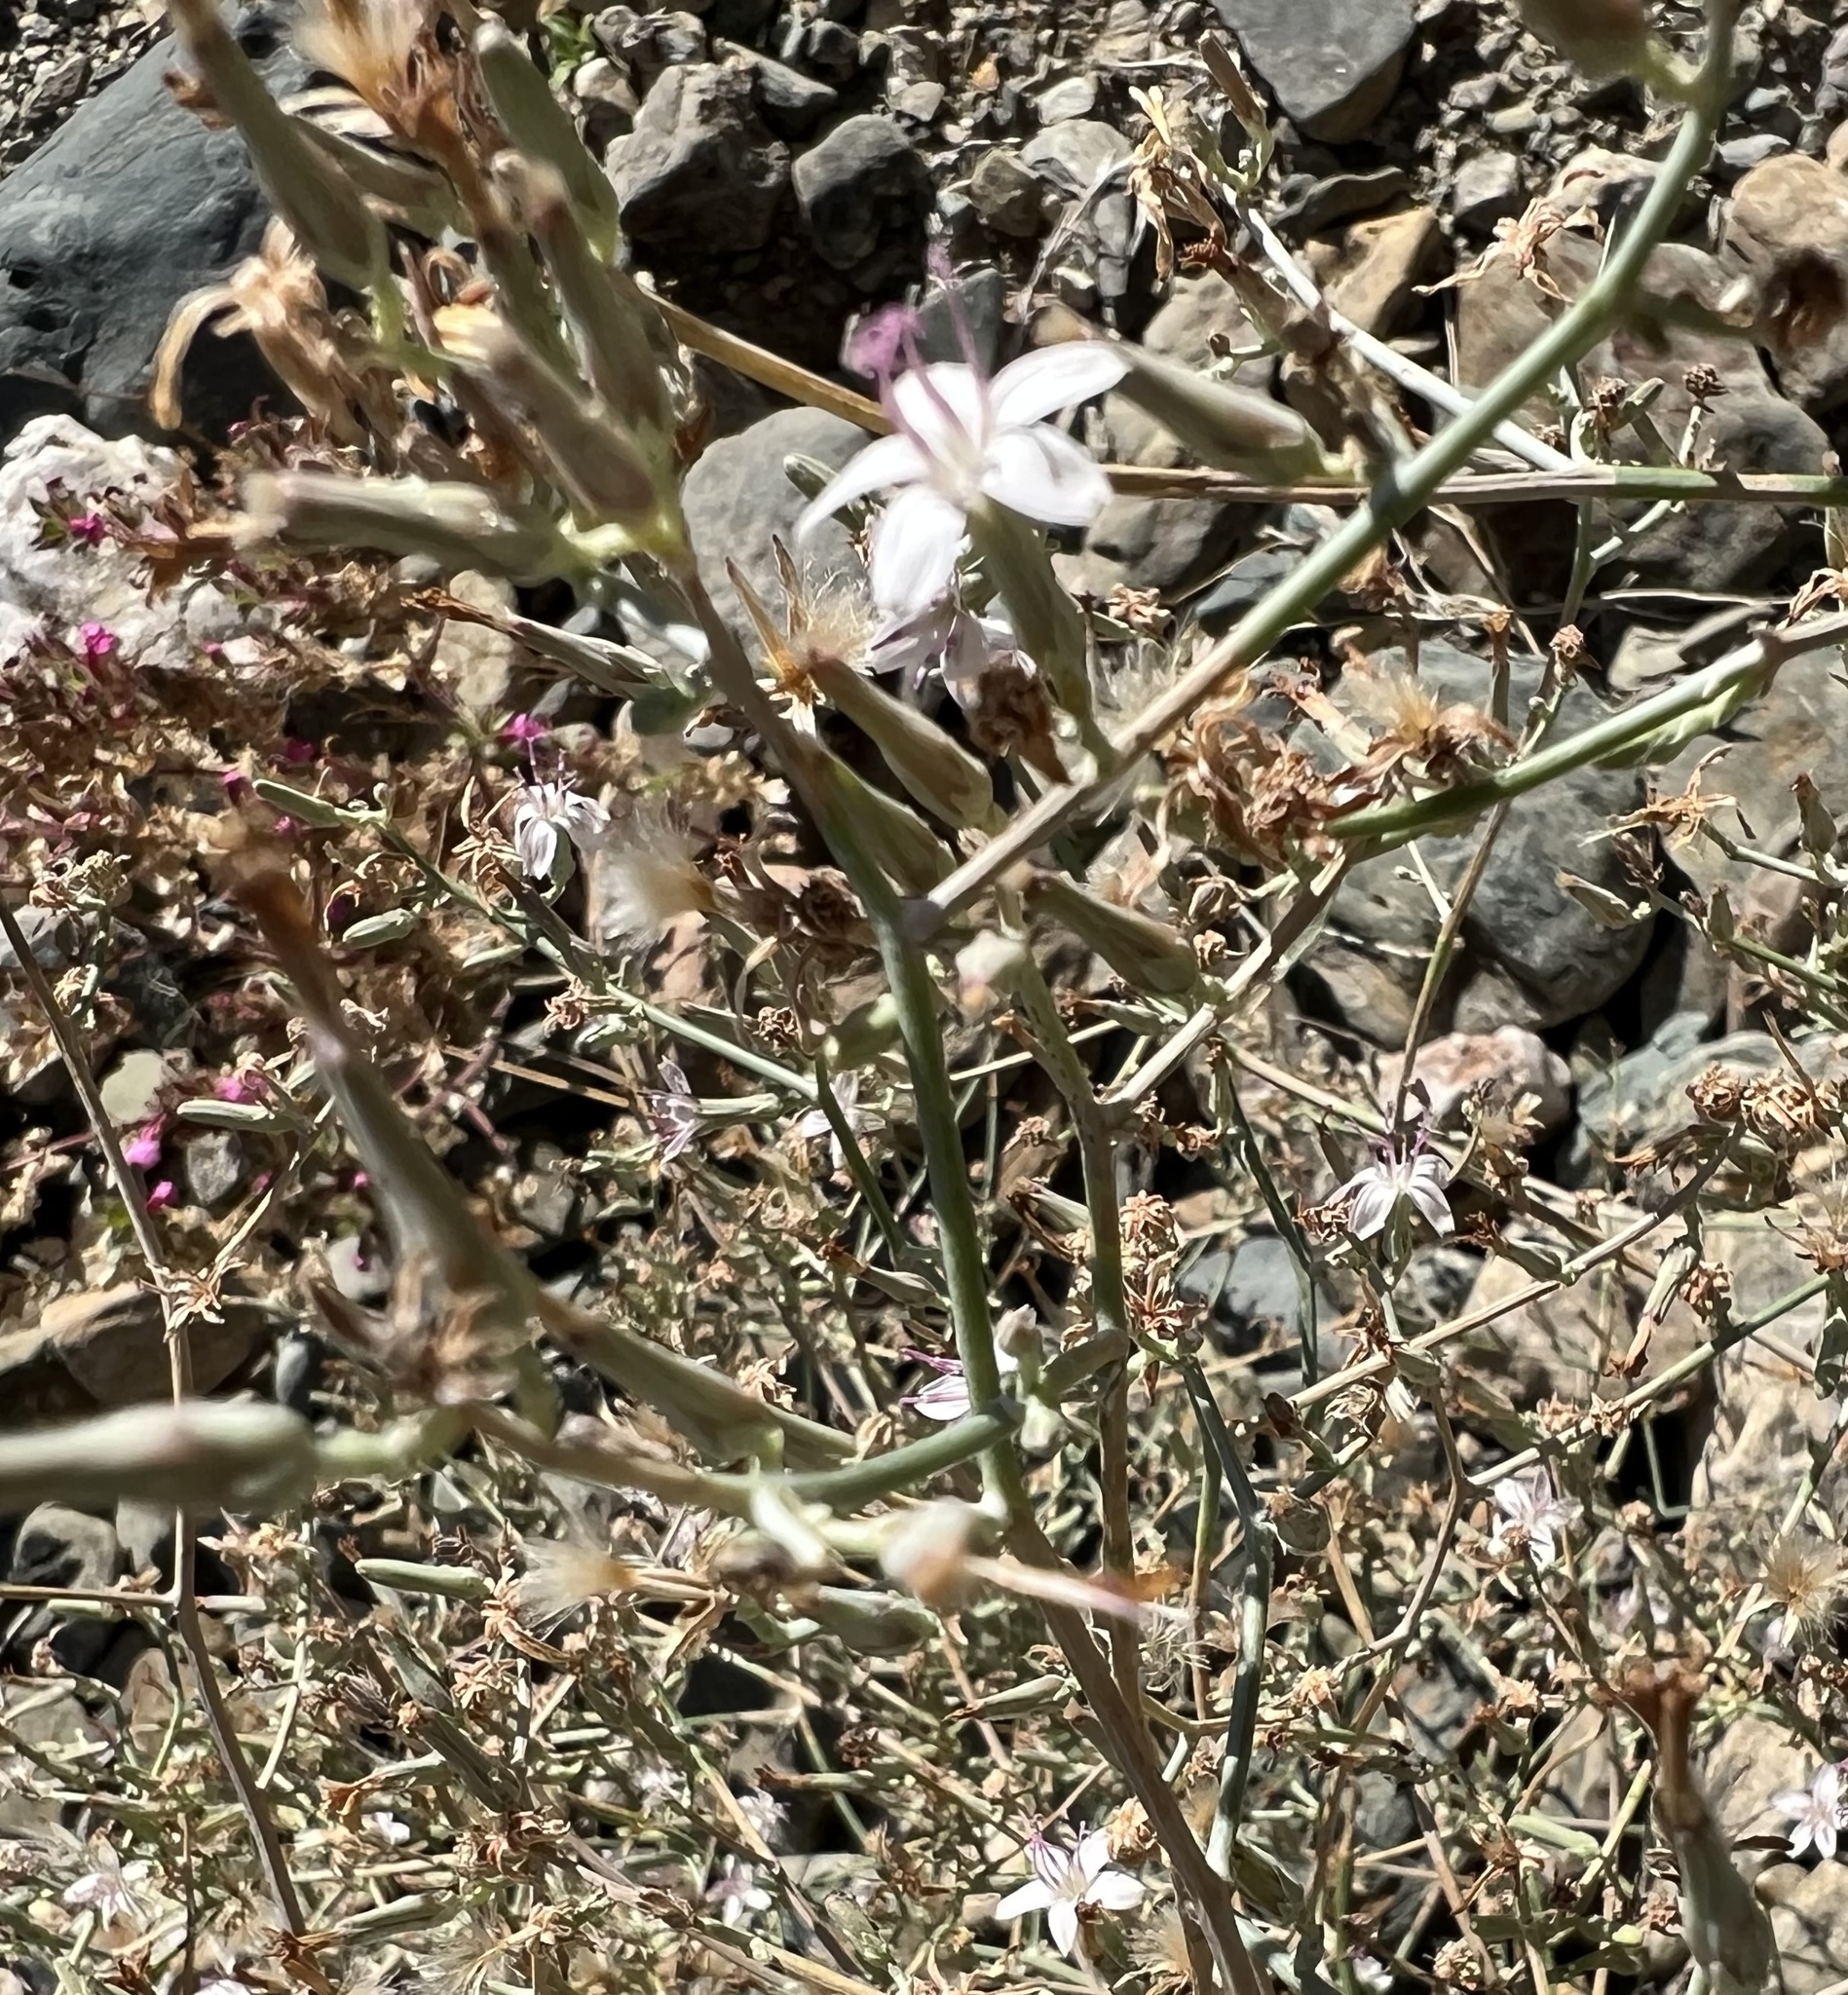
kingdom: Plantae
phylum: Tracheophyta
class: Magnoliopsida
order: Asterales
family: Asteraceae
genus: Stephanomeria
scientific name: Stephanomeria pauciflora
